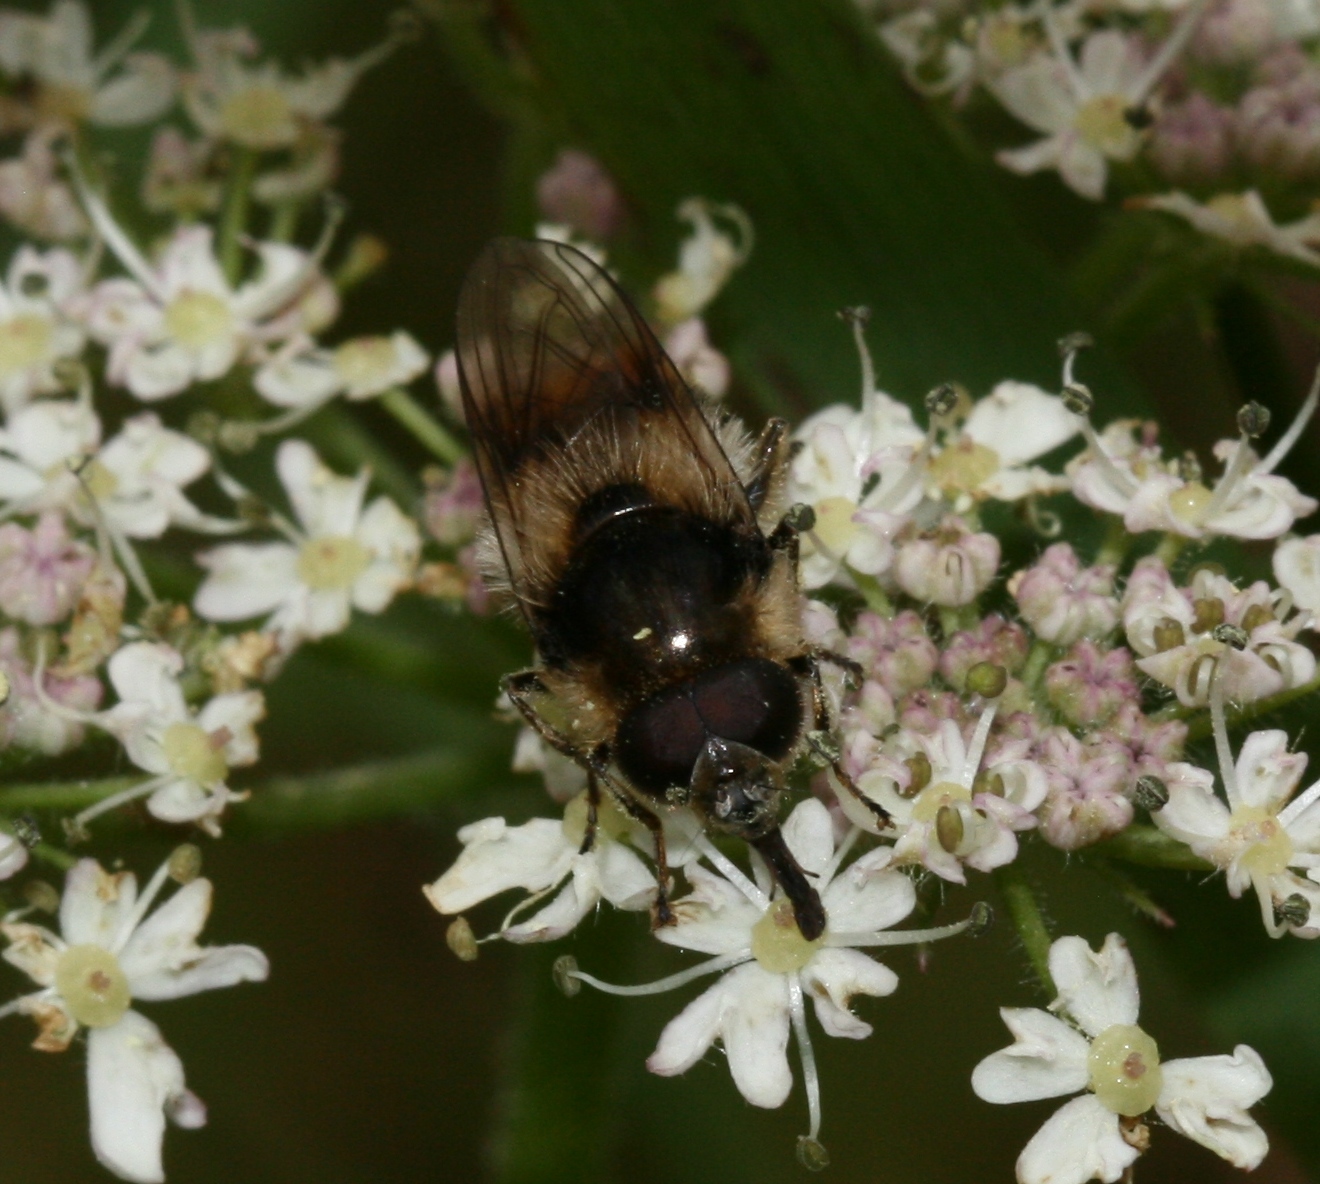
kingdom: Animalia
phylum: Arthropoda
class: Insecta
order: Diptera
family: Syrphidae
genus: Cheilosia
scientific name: Cheilosia illustrata
